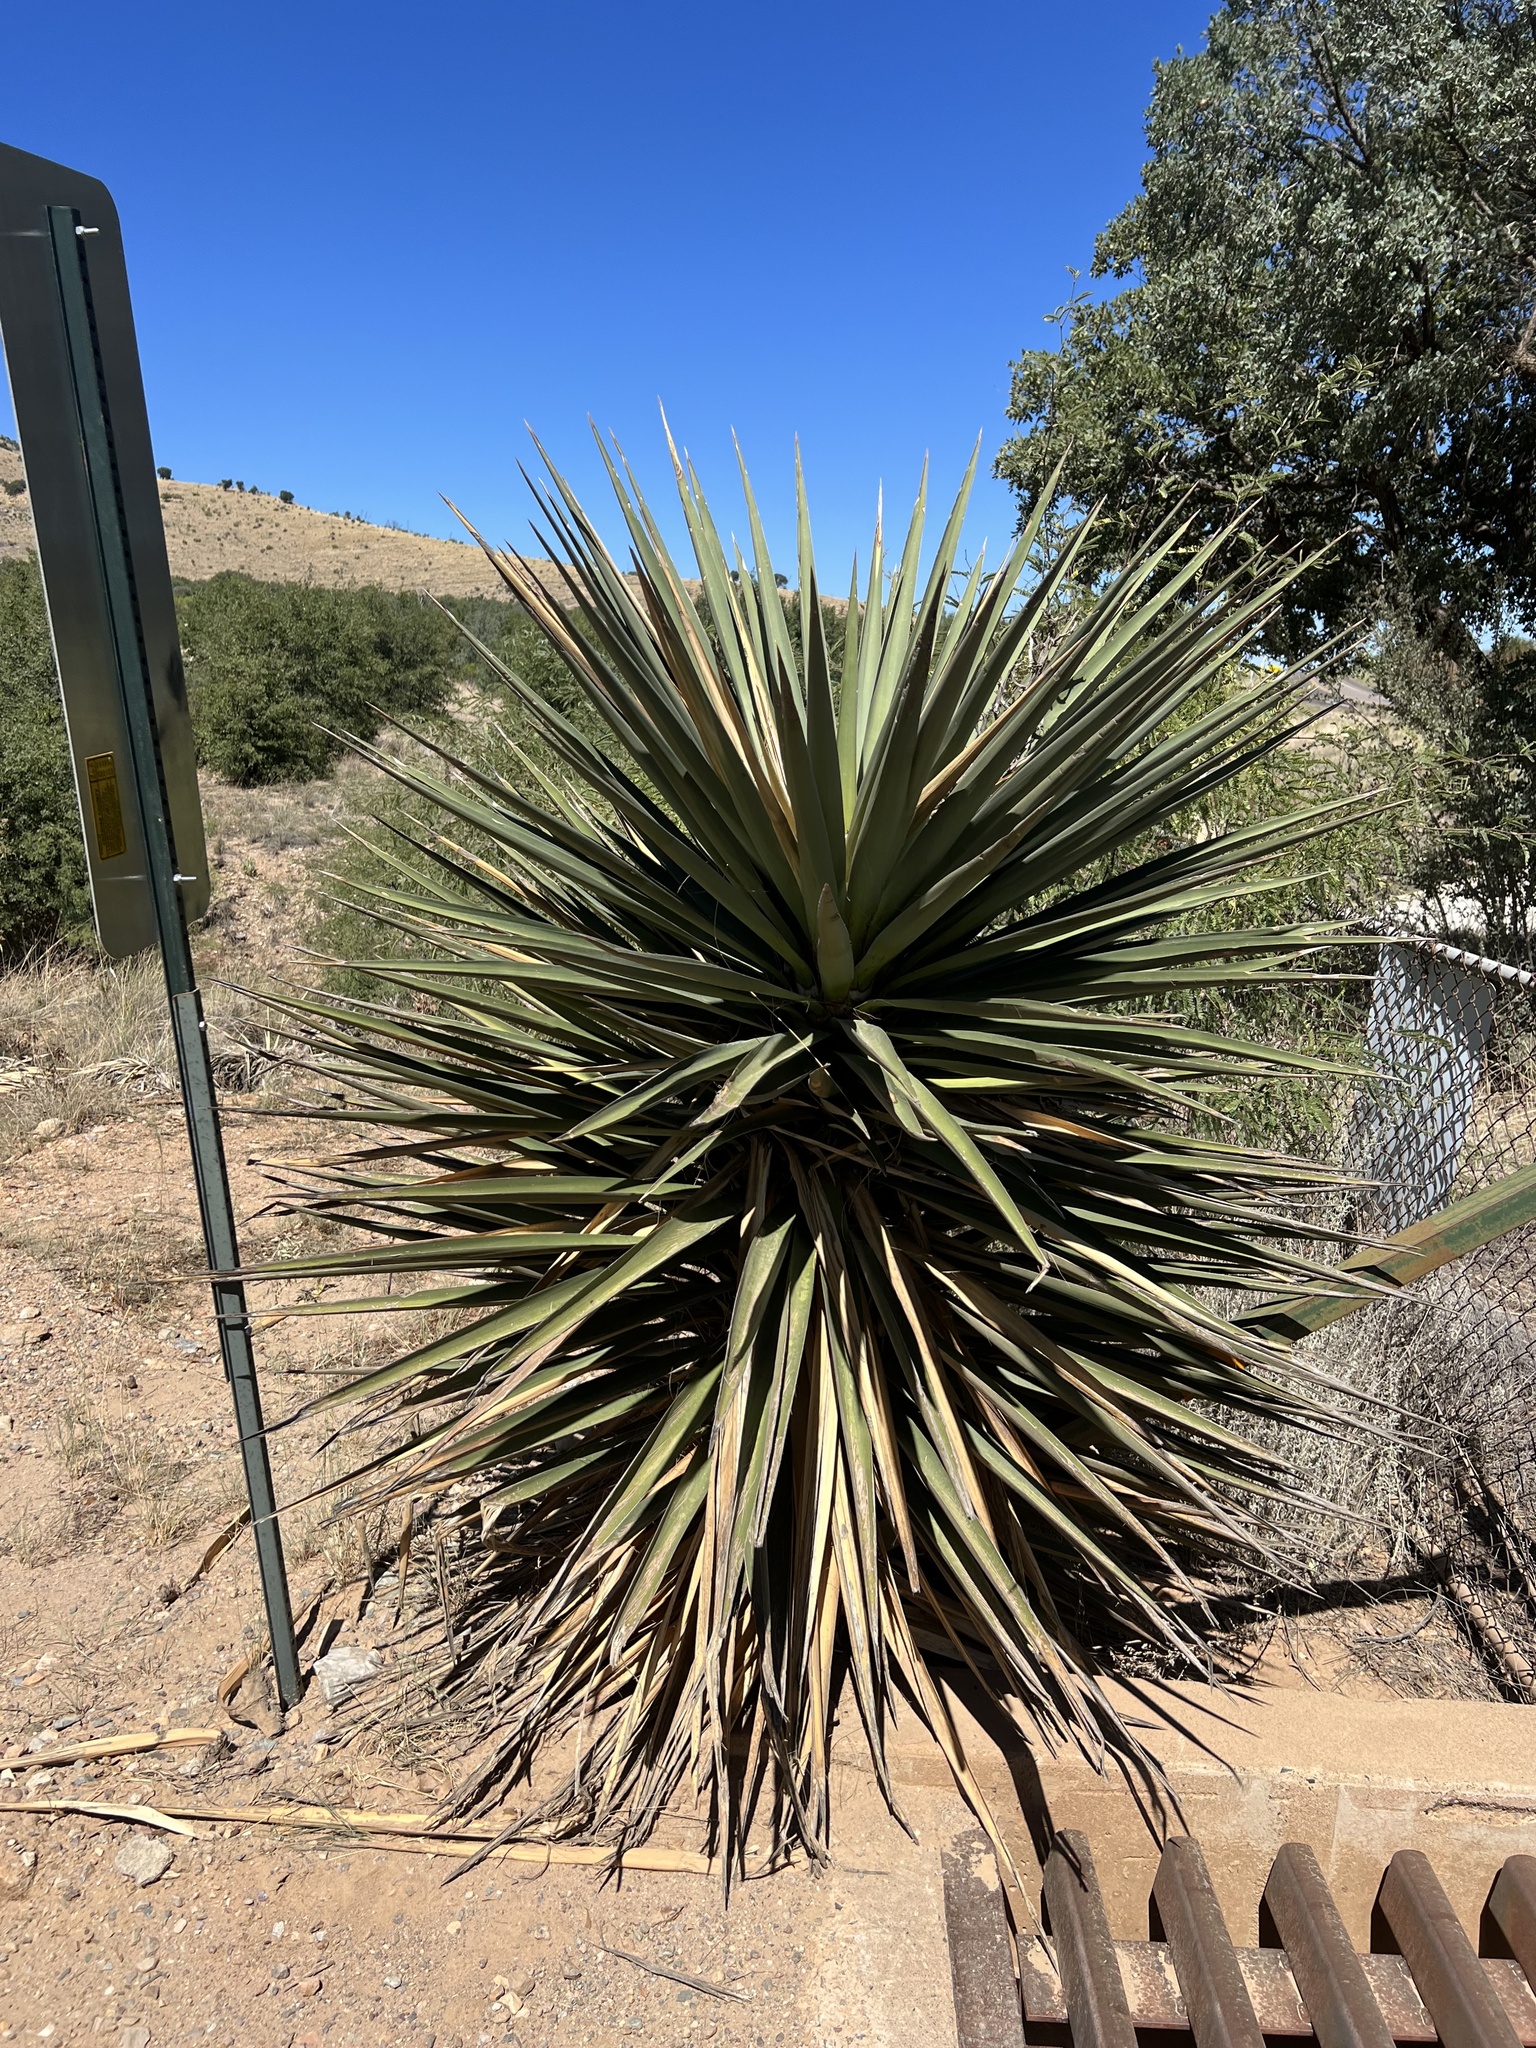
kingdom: Plantae
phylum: Tracheophyta
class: Liliopsida
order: Asparagales
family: Asparagaceae
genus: Yucca
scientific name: Yucca schottii
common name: Hoary yucca
